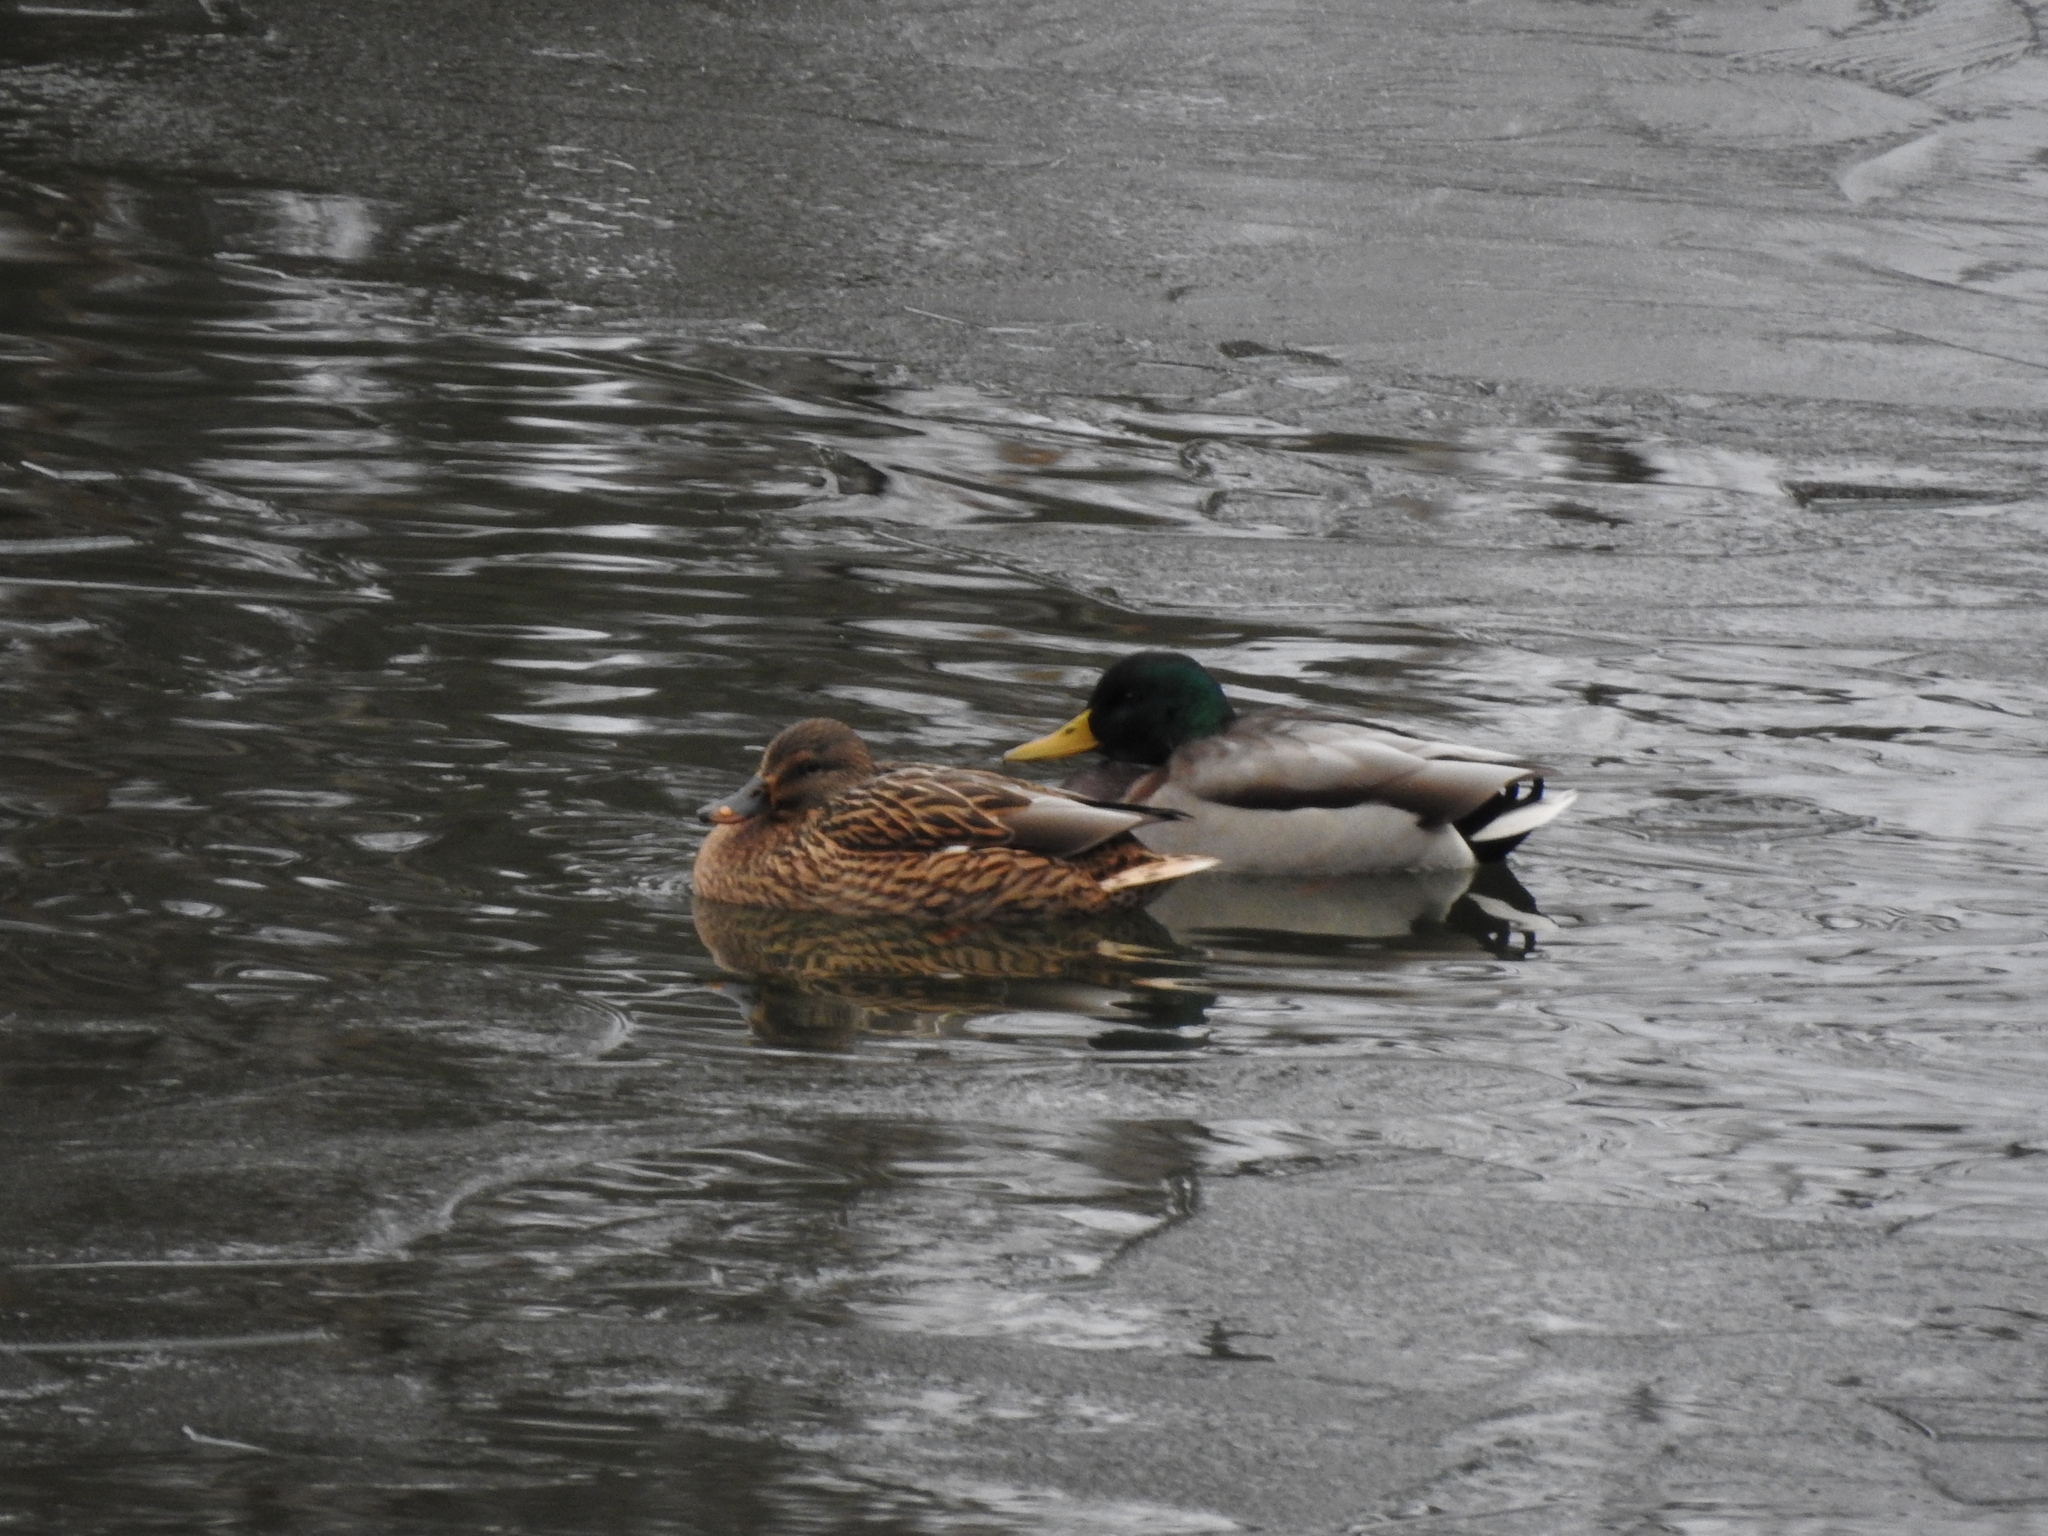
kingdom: Animalia
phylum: Chordata
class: Aves
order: Anseriformes
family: Anatidae
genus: Anas
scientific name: Anas platyrhynchos
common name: Mallard
